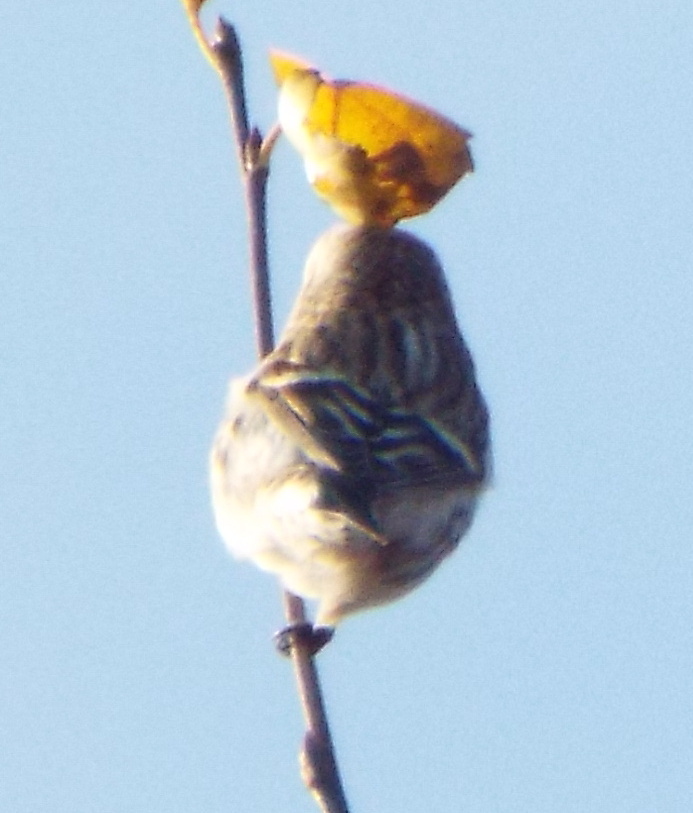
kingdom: Animalia
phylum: Chordata
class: Aves
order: Passeriformes
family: Fringillidae
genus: Acanthis
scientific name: Acanthis flammea
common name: Common redpoll
